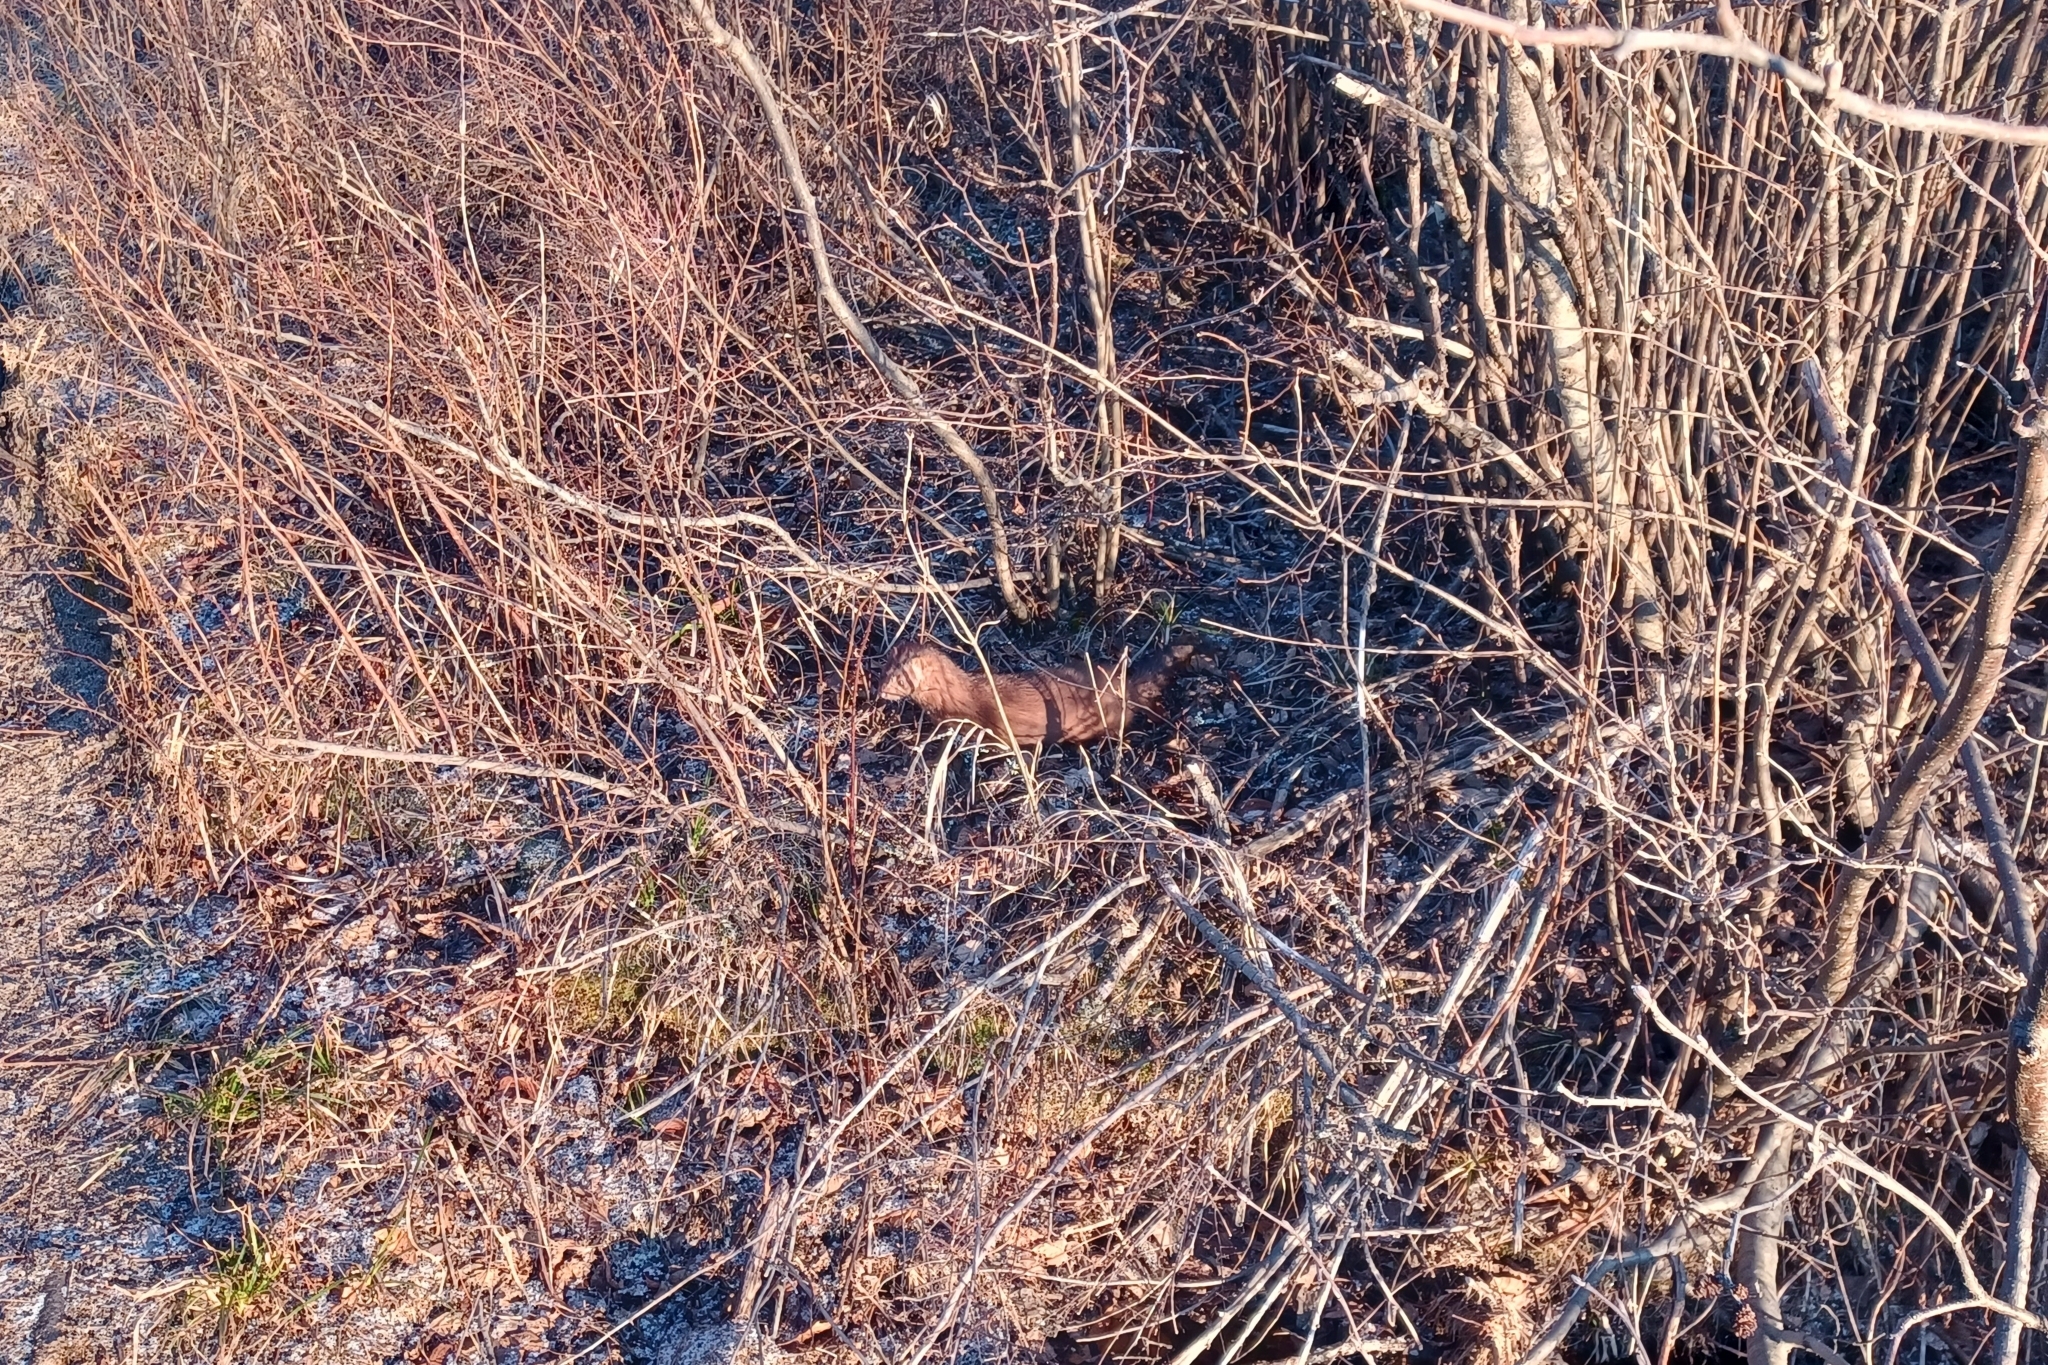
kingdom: Animalia
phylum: Chordata
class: Mammalia
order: Carnivora
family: Mustelidae
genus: Mustela
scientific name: Mustela
